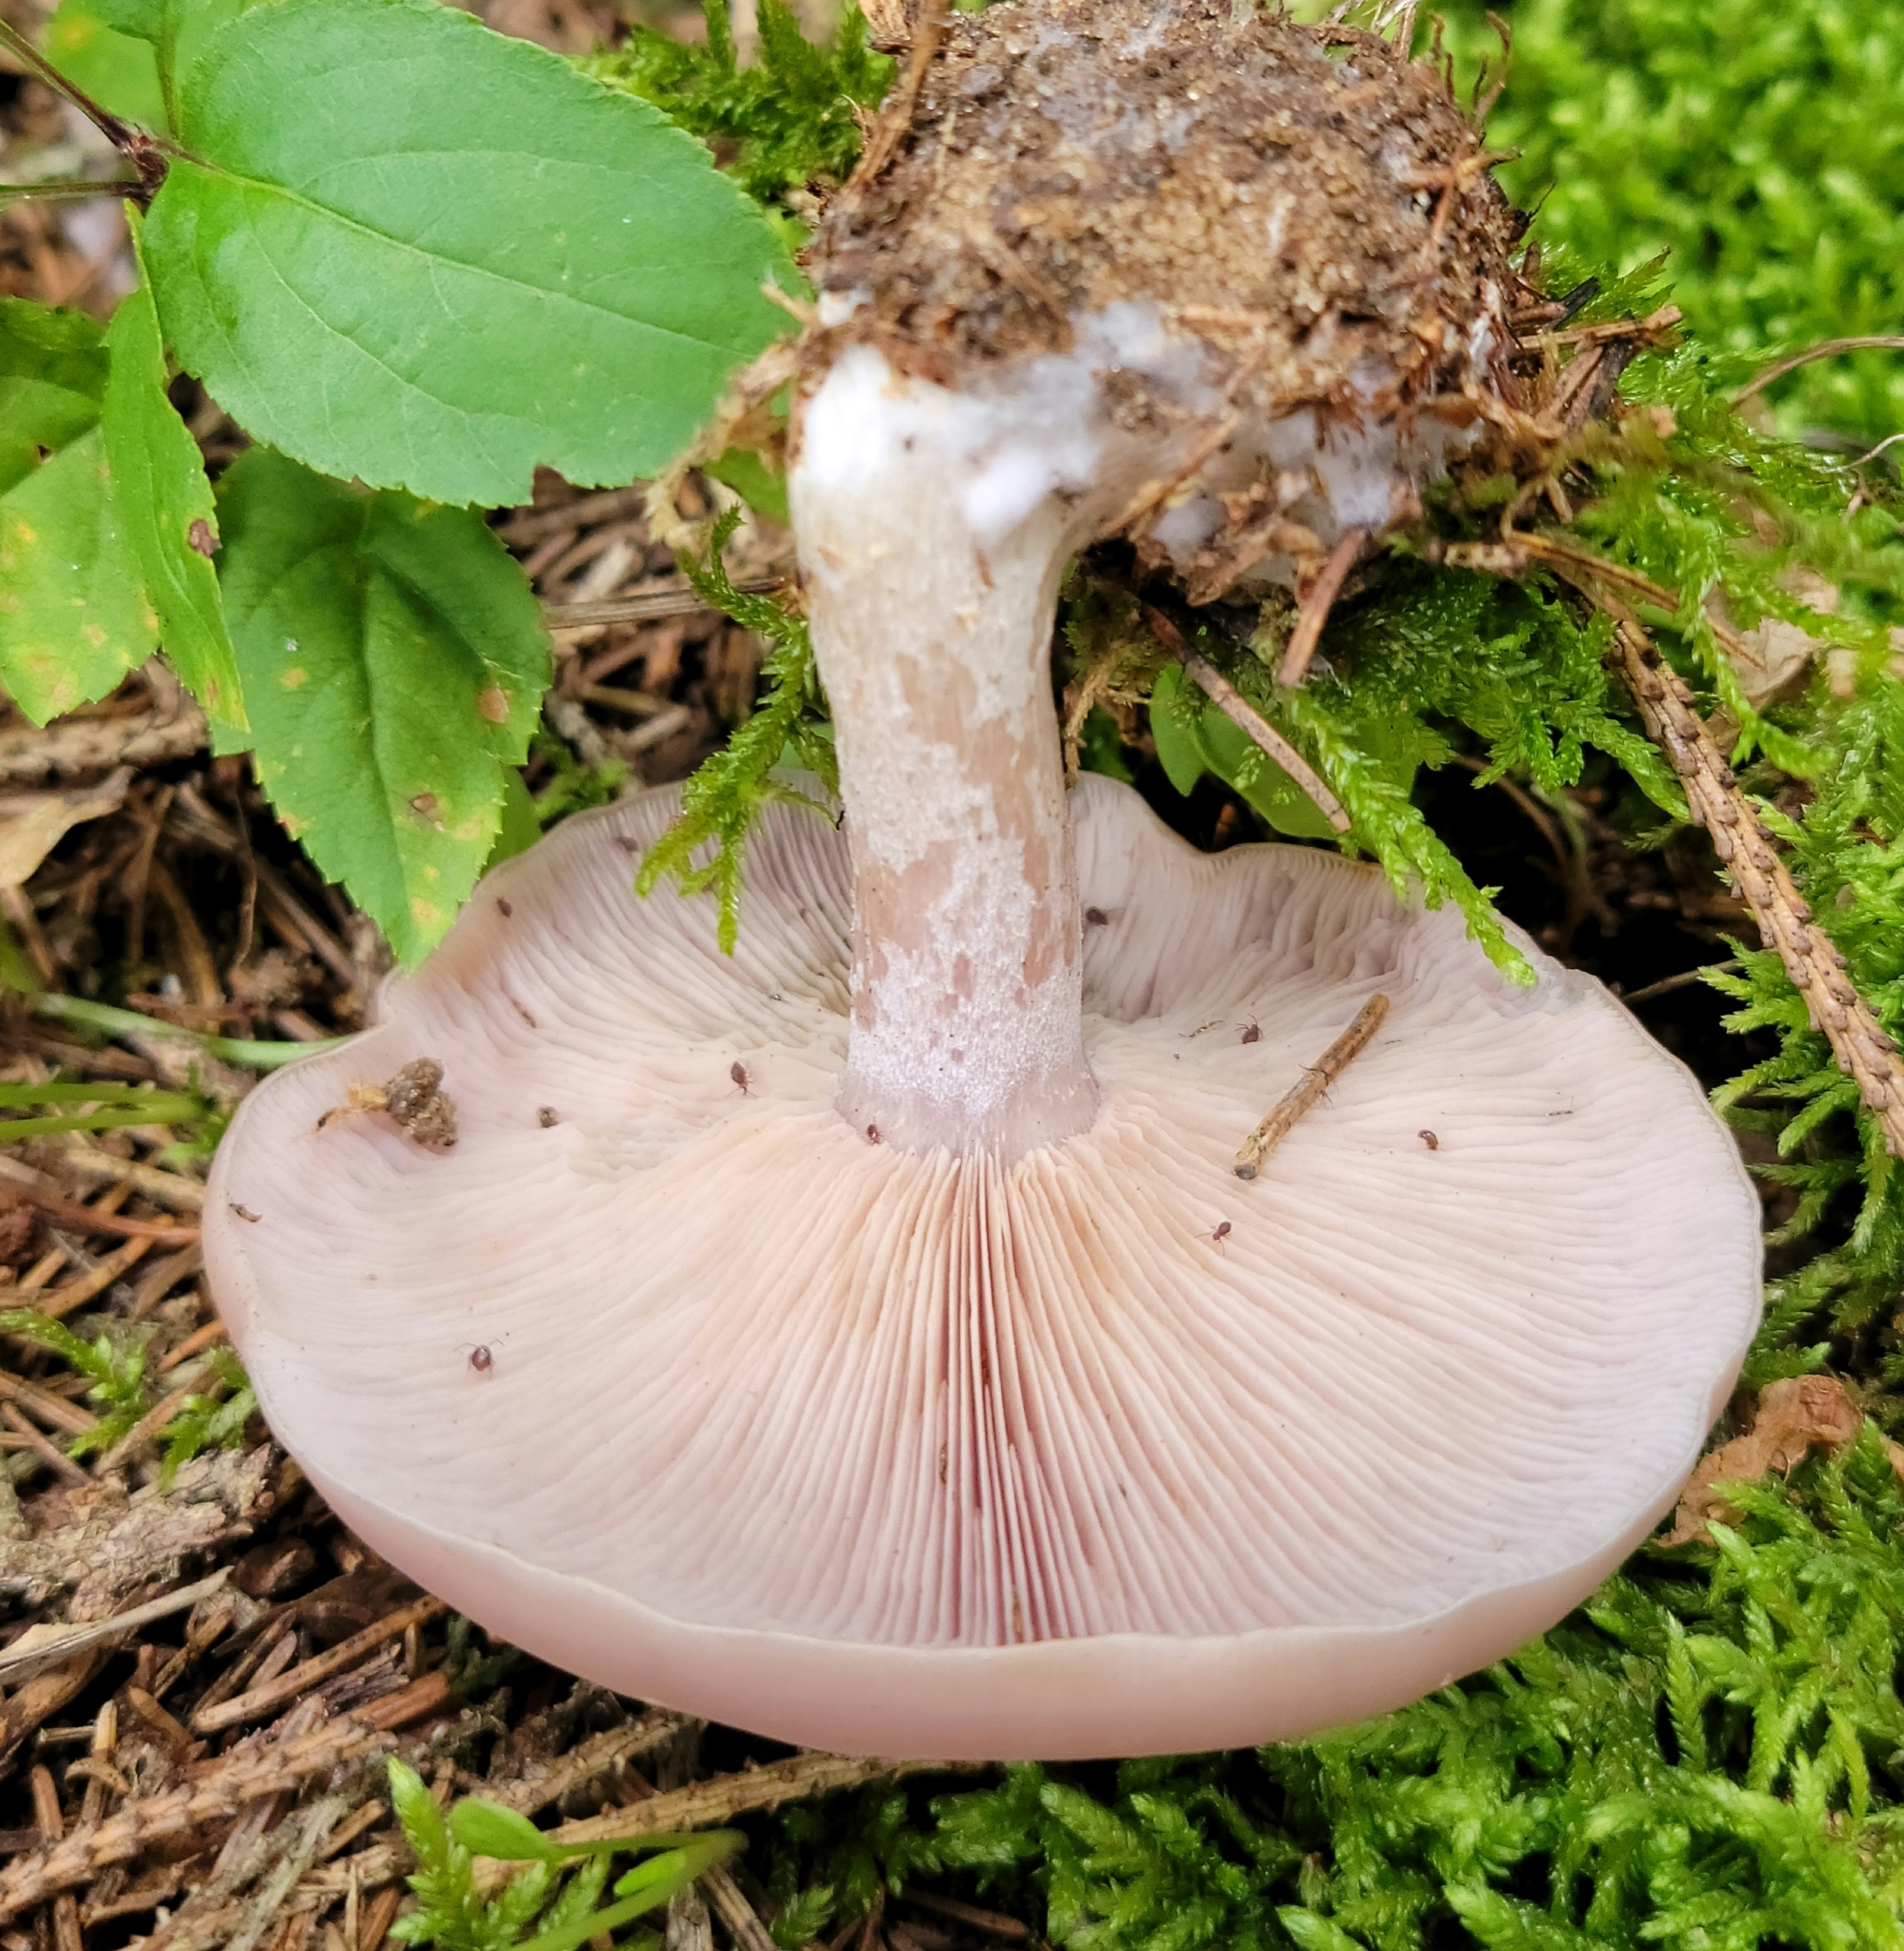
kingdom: Fungi
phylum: Basidiomycota
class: Agaricomycetes
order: Agaricales
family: Tricholomataceae
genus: Collybia
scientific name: Collybia
